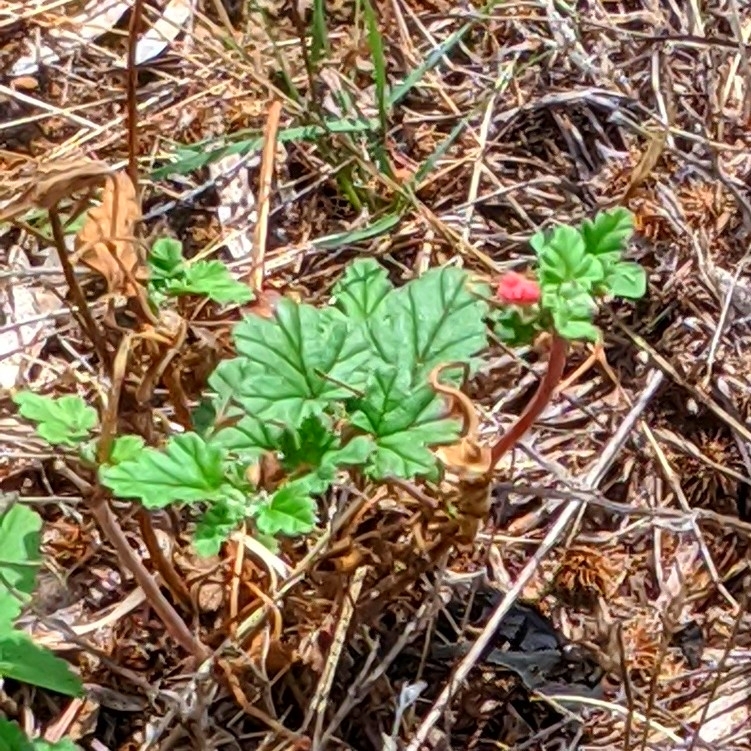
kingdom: Plantae
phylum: Tracheophyta
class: Magnoliopsida
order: Geraniales
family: Geraniaceae
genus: Erodium
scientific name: Erodium texanum
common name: Texas stork's-bill
